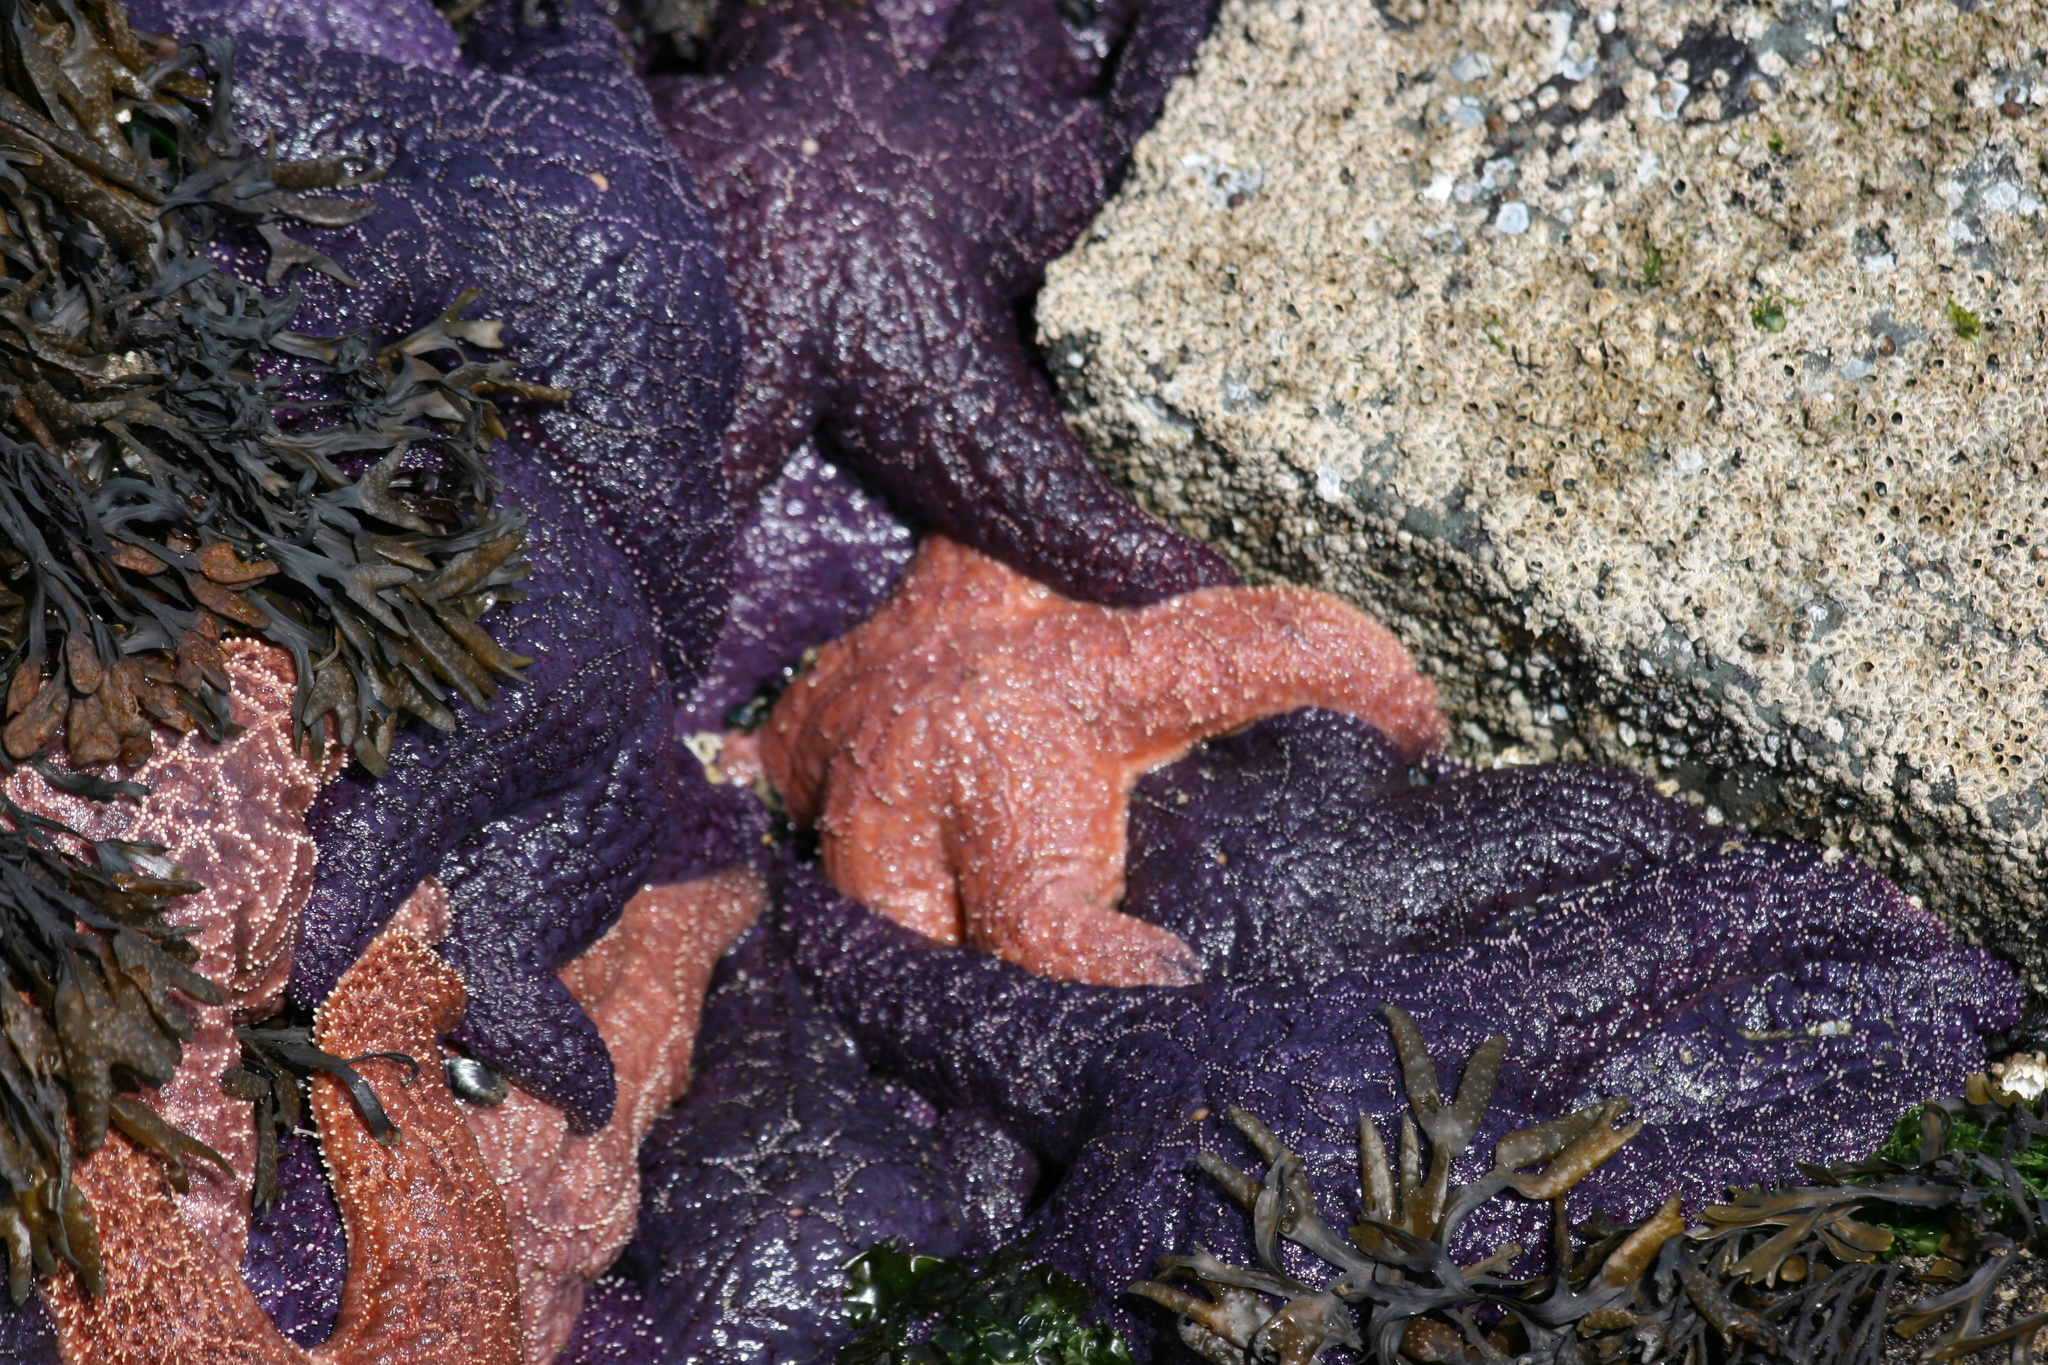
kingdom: Animalia
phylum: Echinodermata
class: Asteroidea
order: Forcipulatida
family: Asteriidae
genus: Pisaster
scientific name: Pisaster ochraceus
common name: Ochre stars
